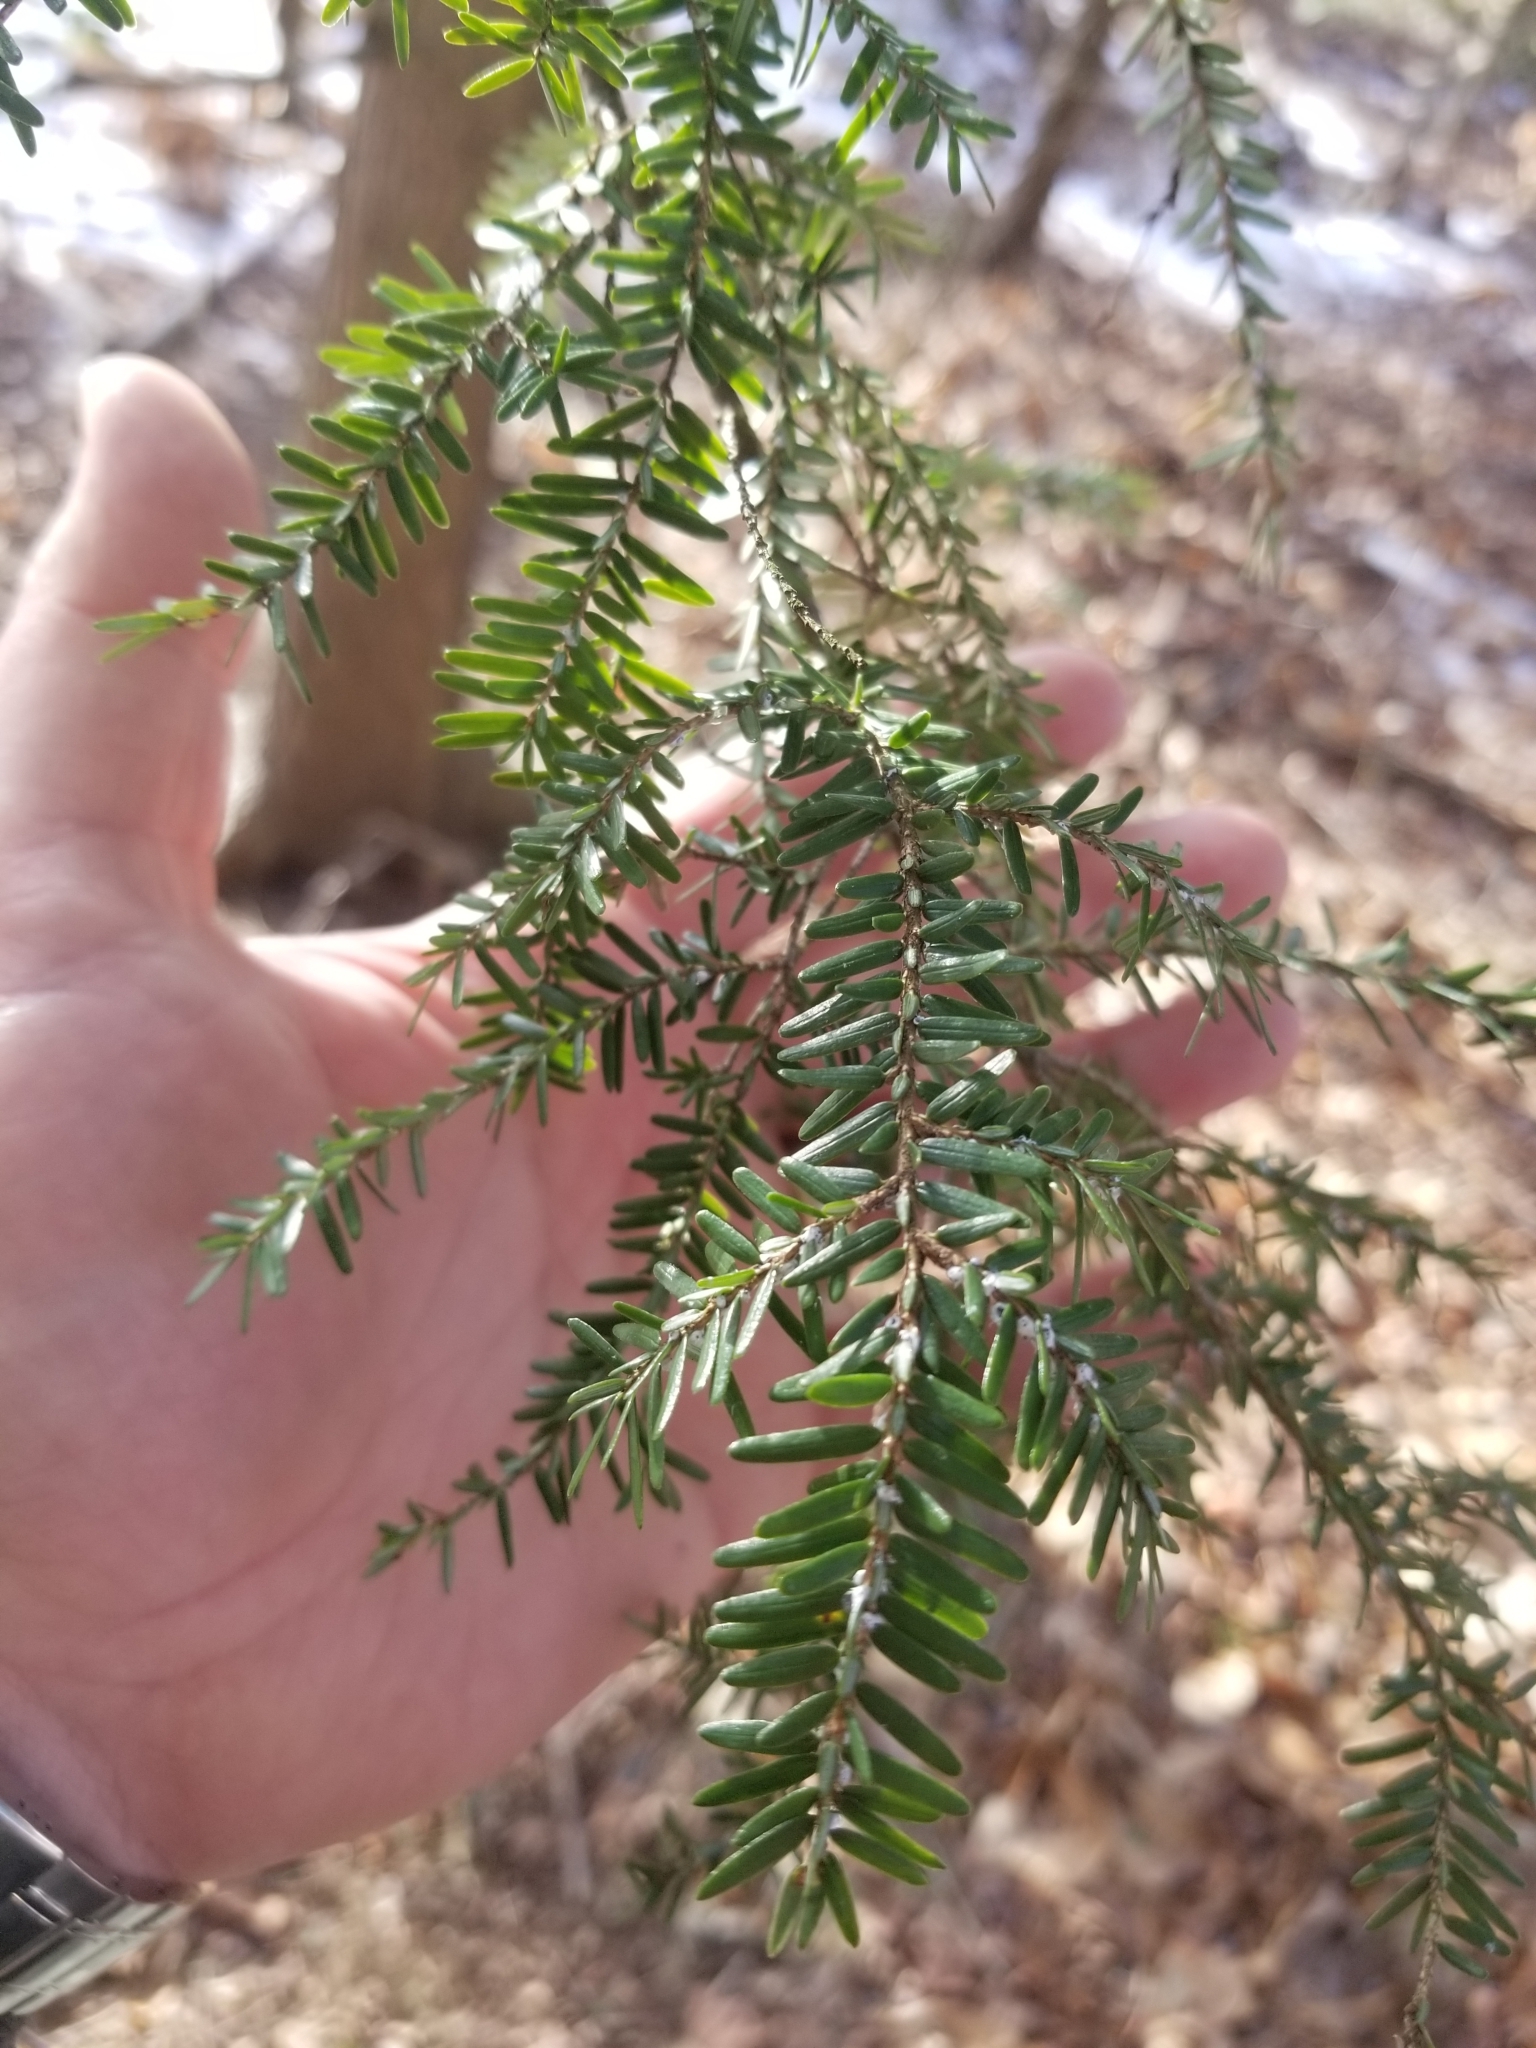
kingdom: Plantae
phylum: Tracheophyta
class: Pinopsida
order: Pinales
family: Pinaceae
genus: Tsuga
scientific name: Tsuga canadensis
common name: Eastern hemlock
